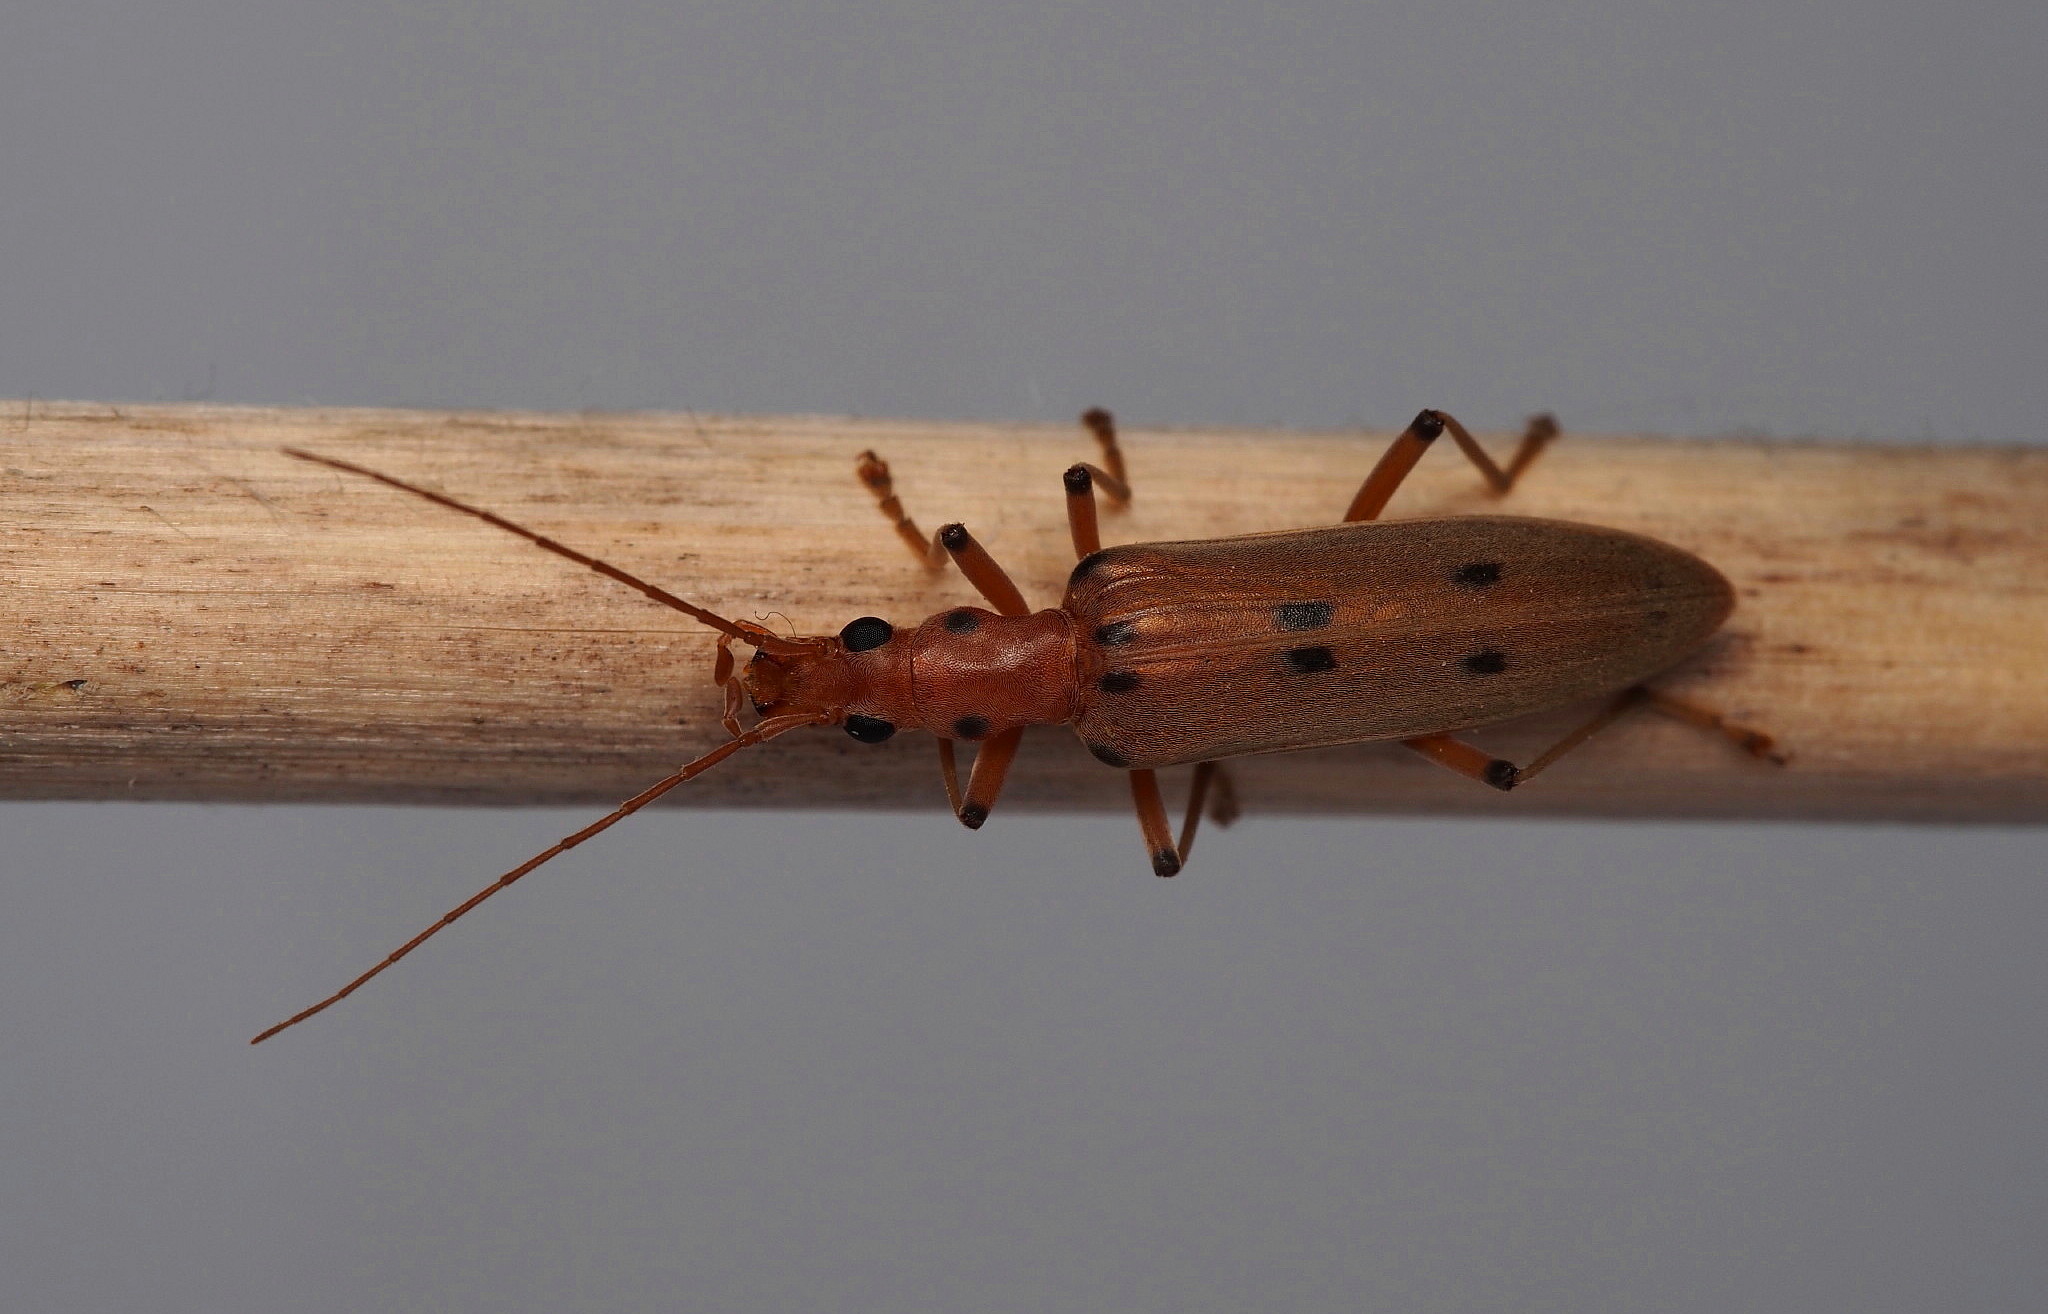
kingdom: Animalia
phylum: Arthropoda
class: Insecta
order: Coleoptera
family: Oedemeridae
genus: Parisopalpus
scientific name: Parisopalpus
